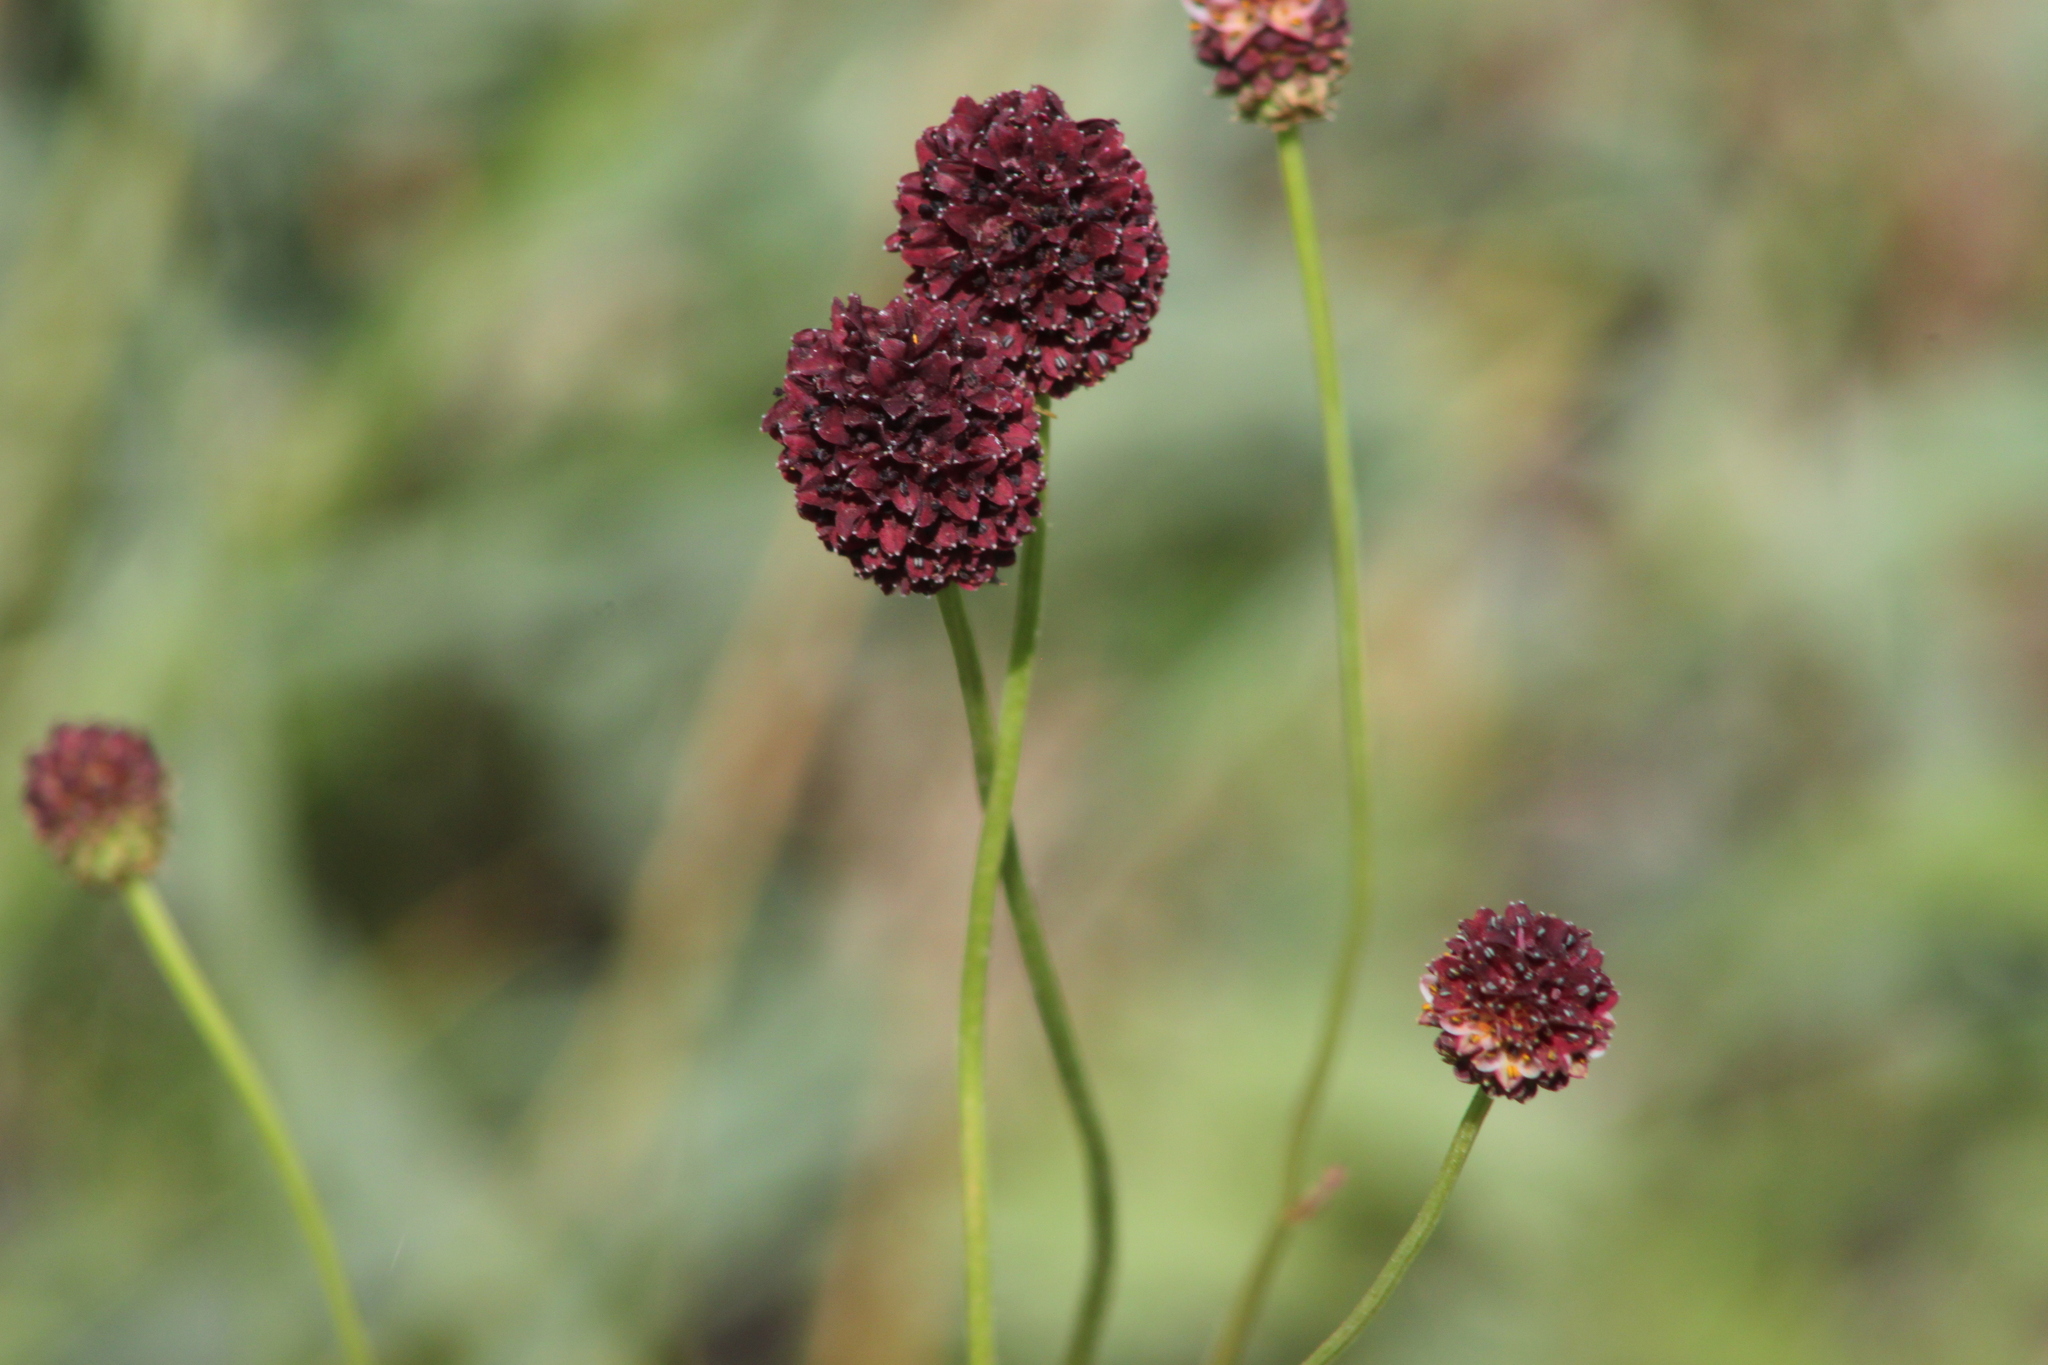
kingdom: Plantae
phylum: Tracheophyta
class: Magnoliopsida
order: Rosales
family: Rosaceae
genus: Sanguisorba
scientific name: Sanguisorba officinalis
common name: Great burnet
